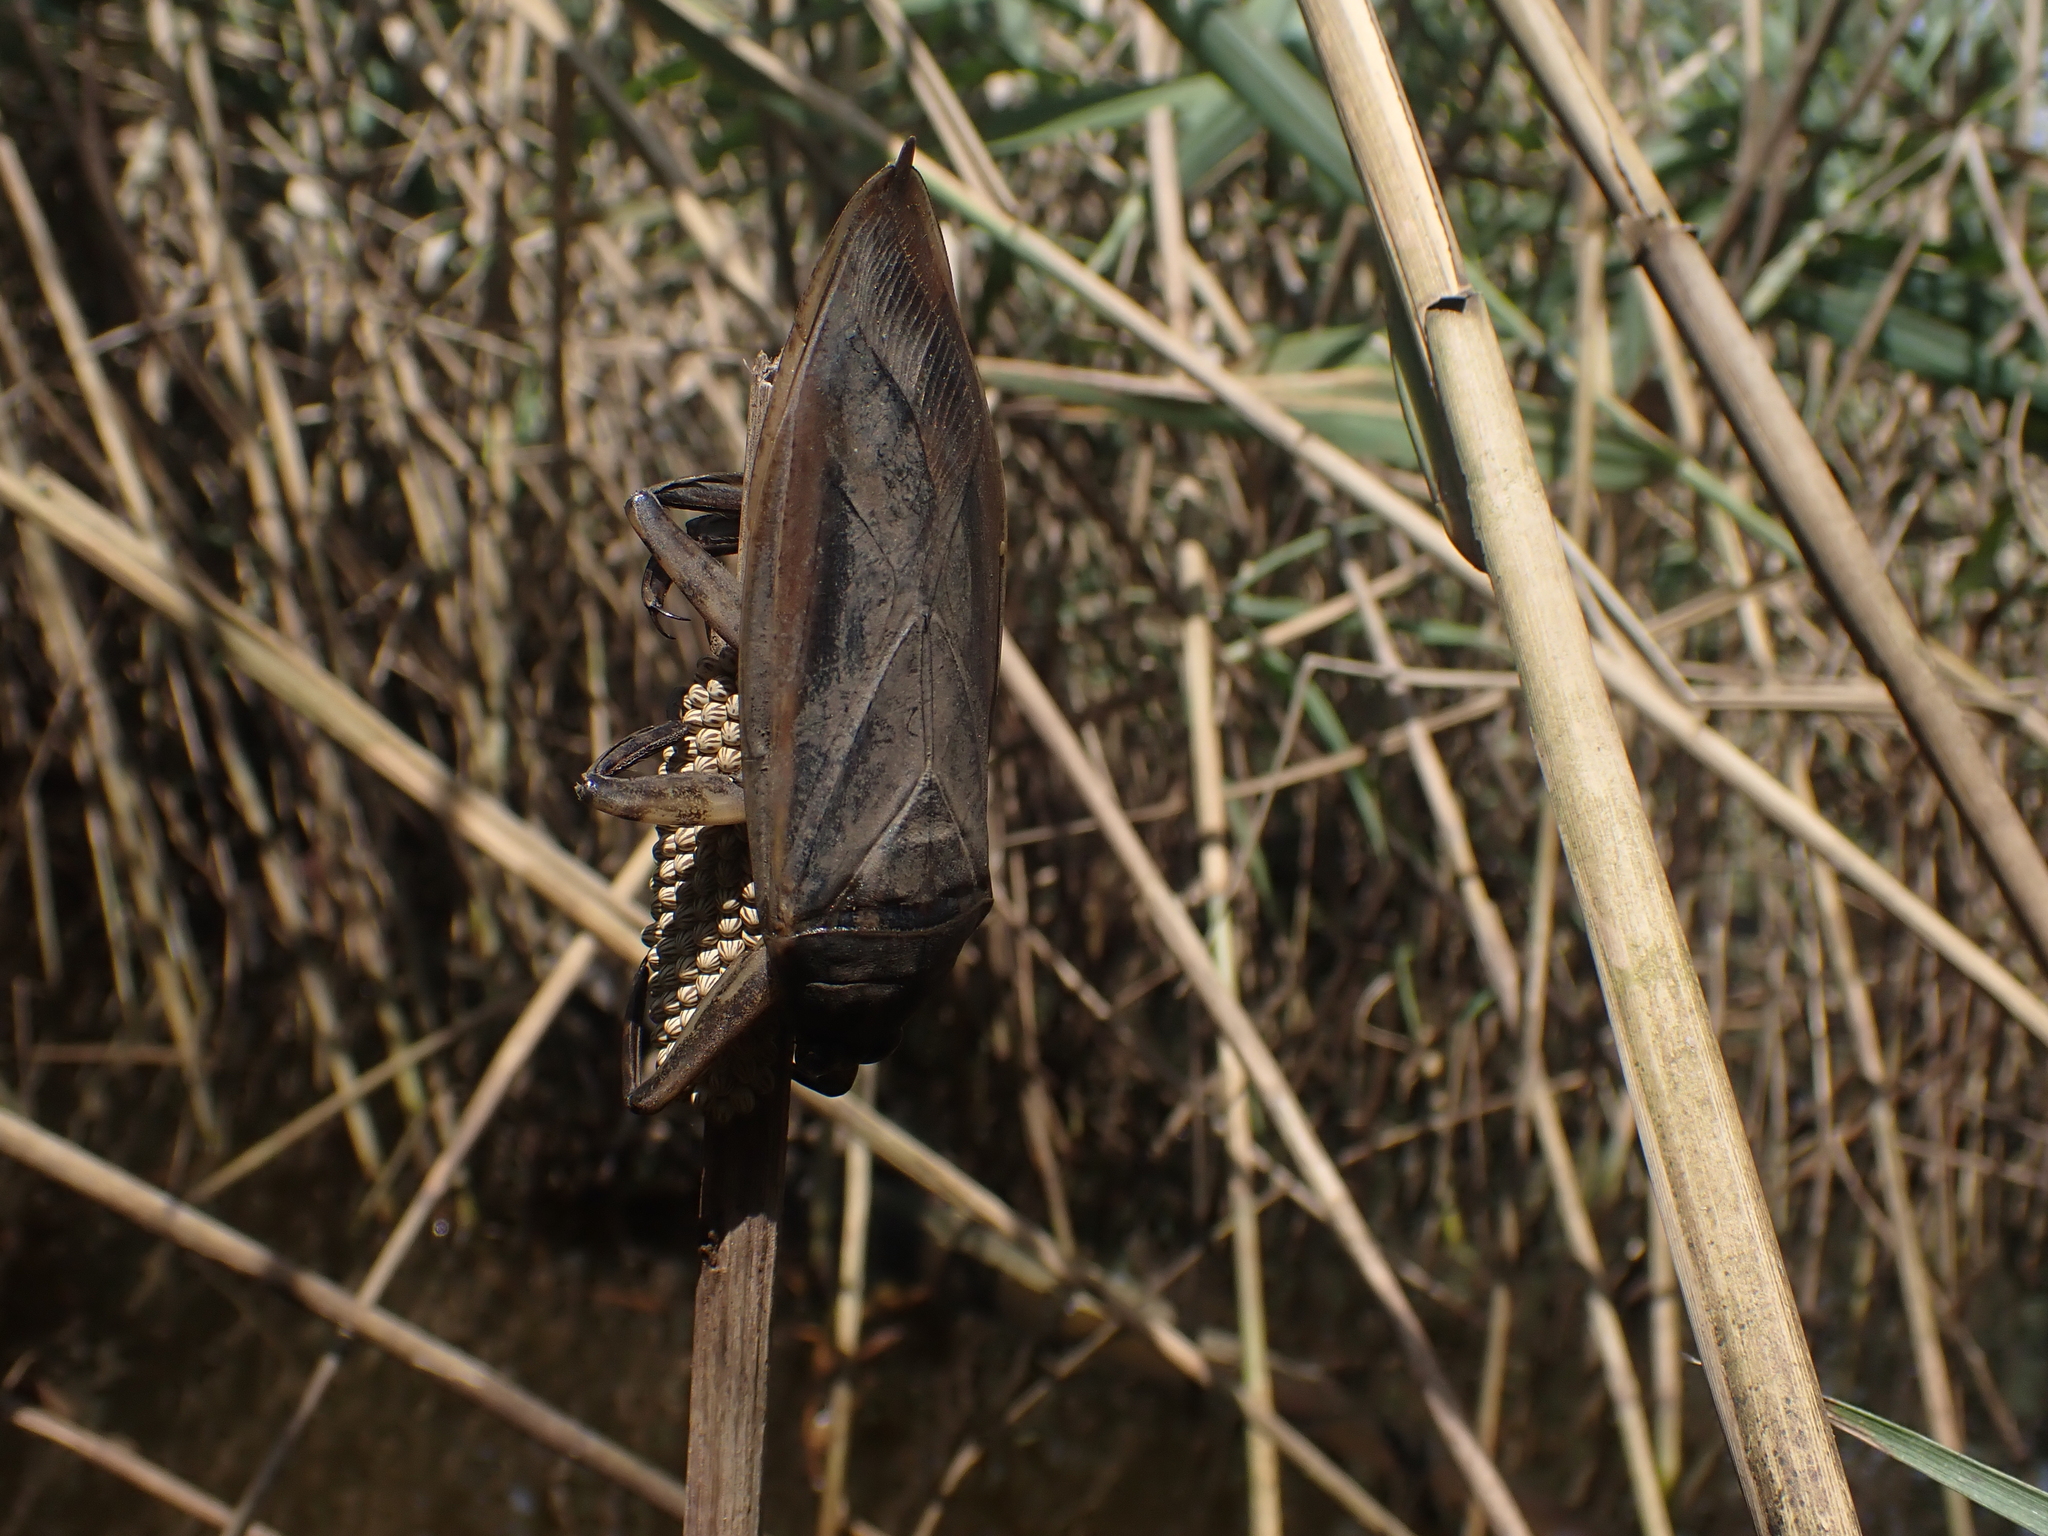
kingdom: Animalia
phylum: Arthropoda
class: Insecta
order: Hemiptera
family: Belostomatidae
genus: Lethocerus
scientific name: Lethocerus indicus
